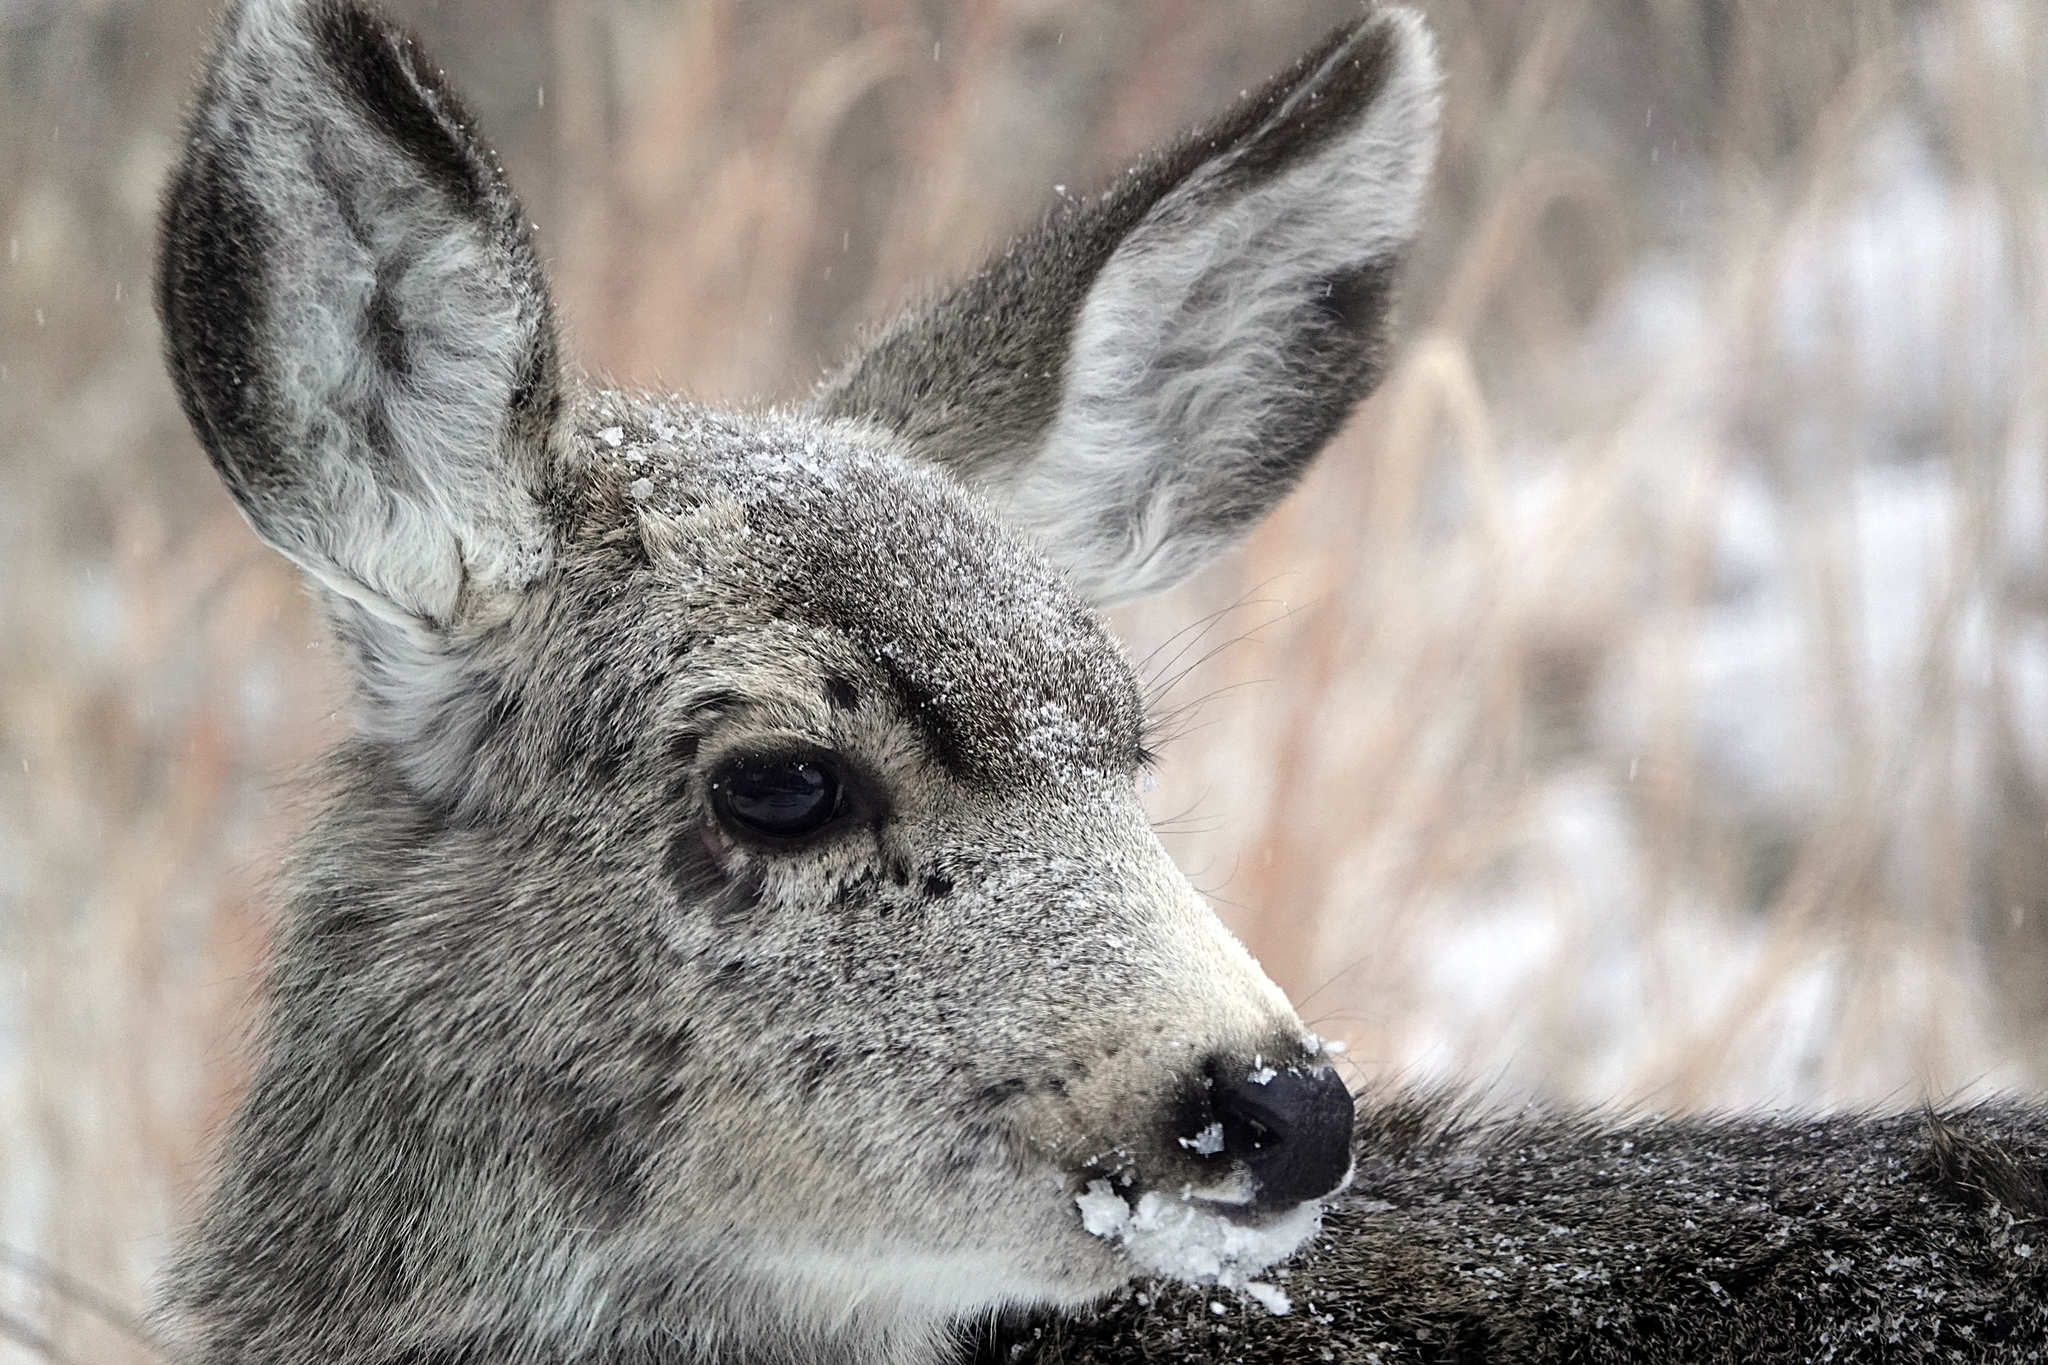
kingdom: Animalia
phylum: Chordata
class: Mammalia
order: Artiodactyla
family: Cervidae
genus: Odocoileus
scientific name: Odocoileus hemionus
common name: Mule deer
